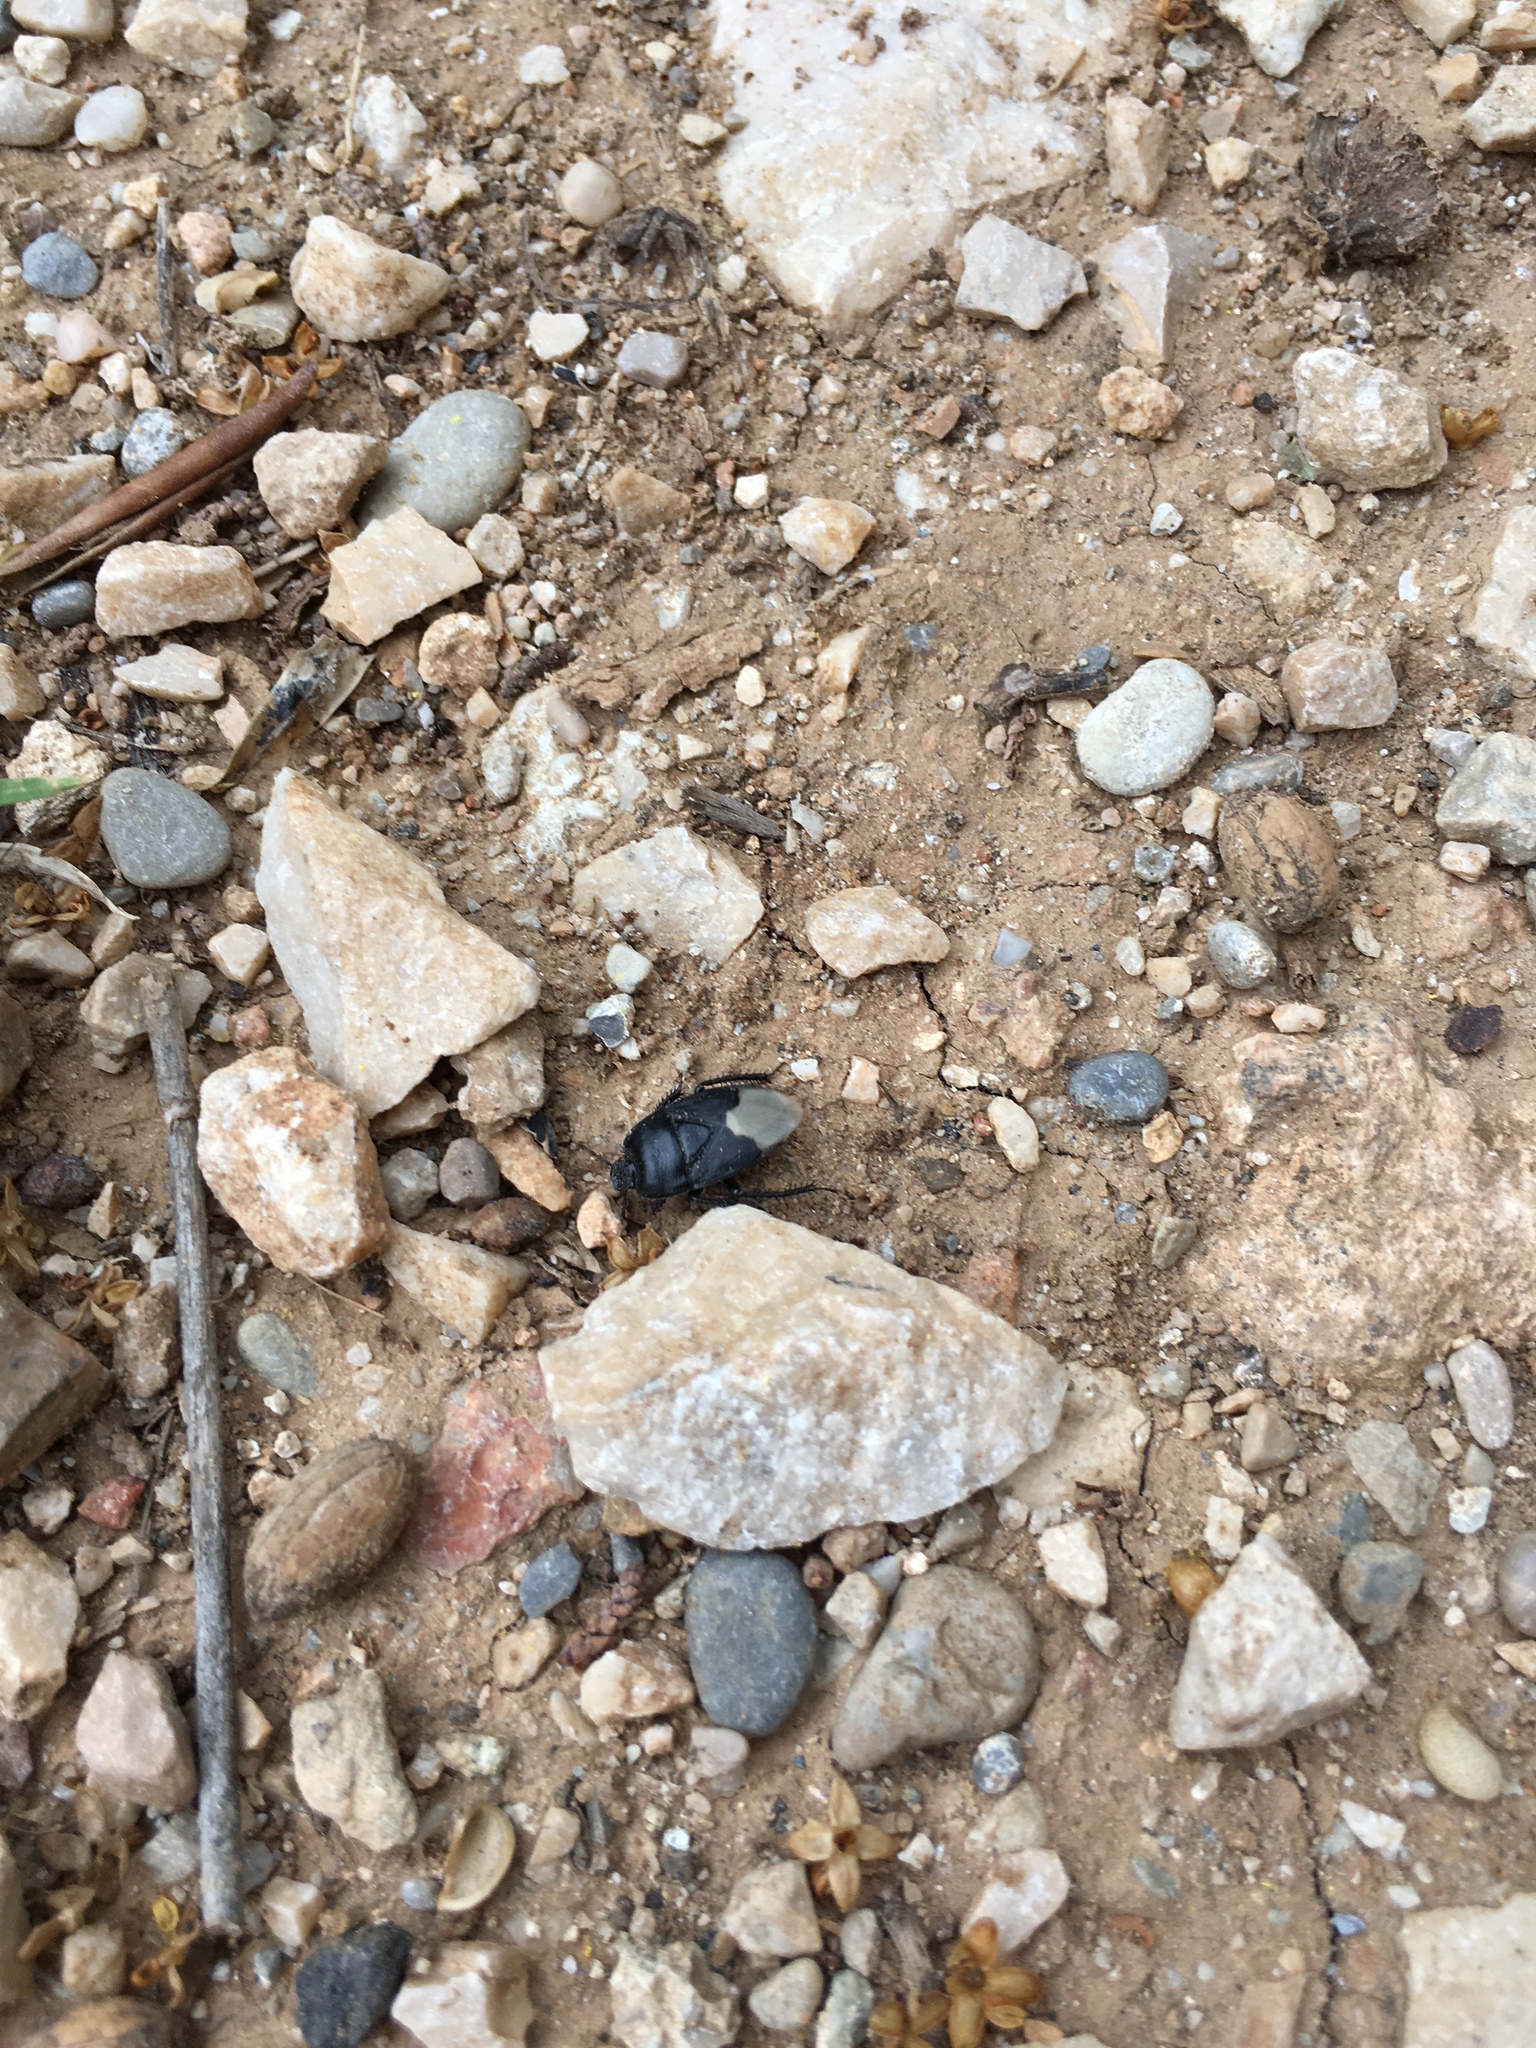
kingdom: Animalia
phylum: Arthropoda
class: Insecta
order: Hemiptera
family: Cydnidae
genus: Cydnus
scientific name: Cydnus aterrimus
